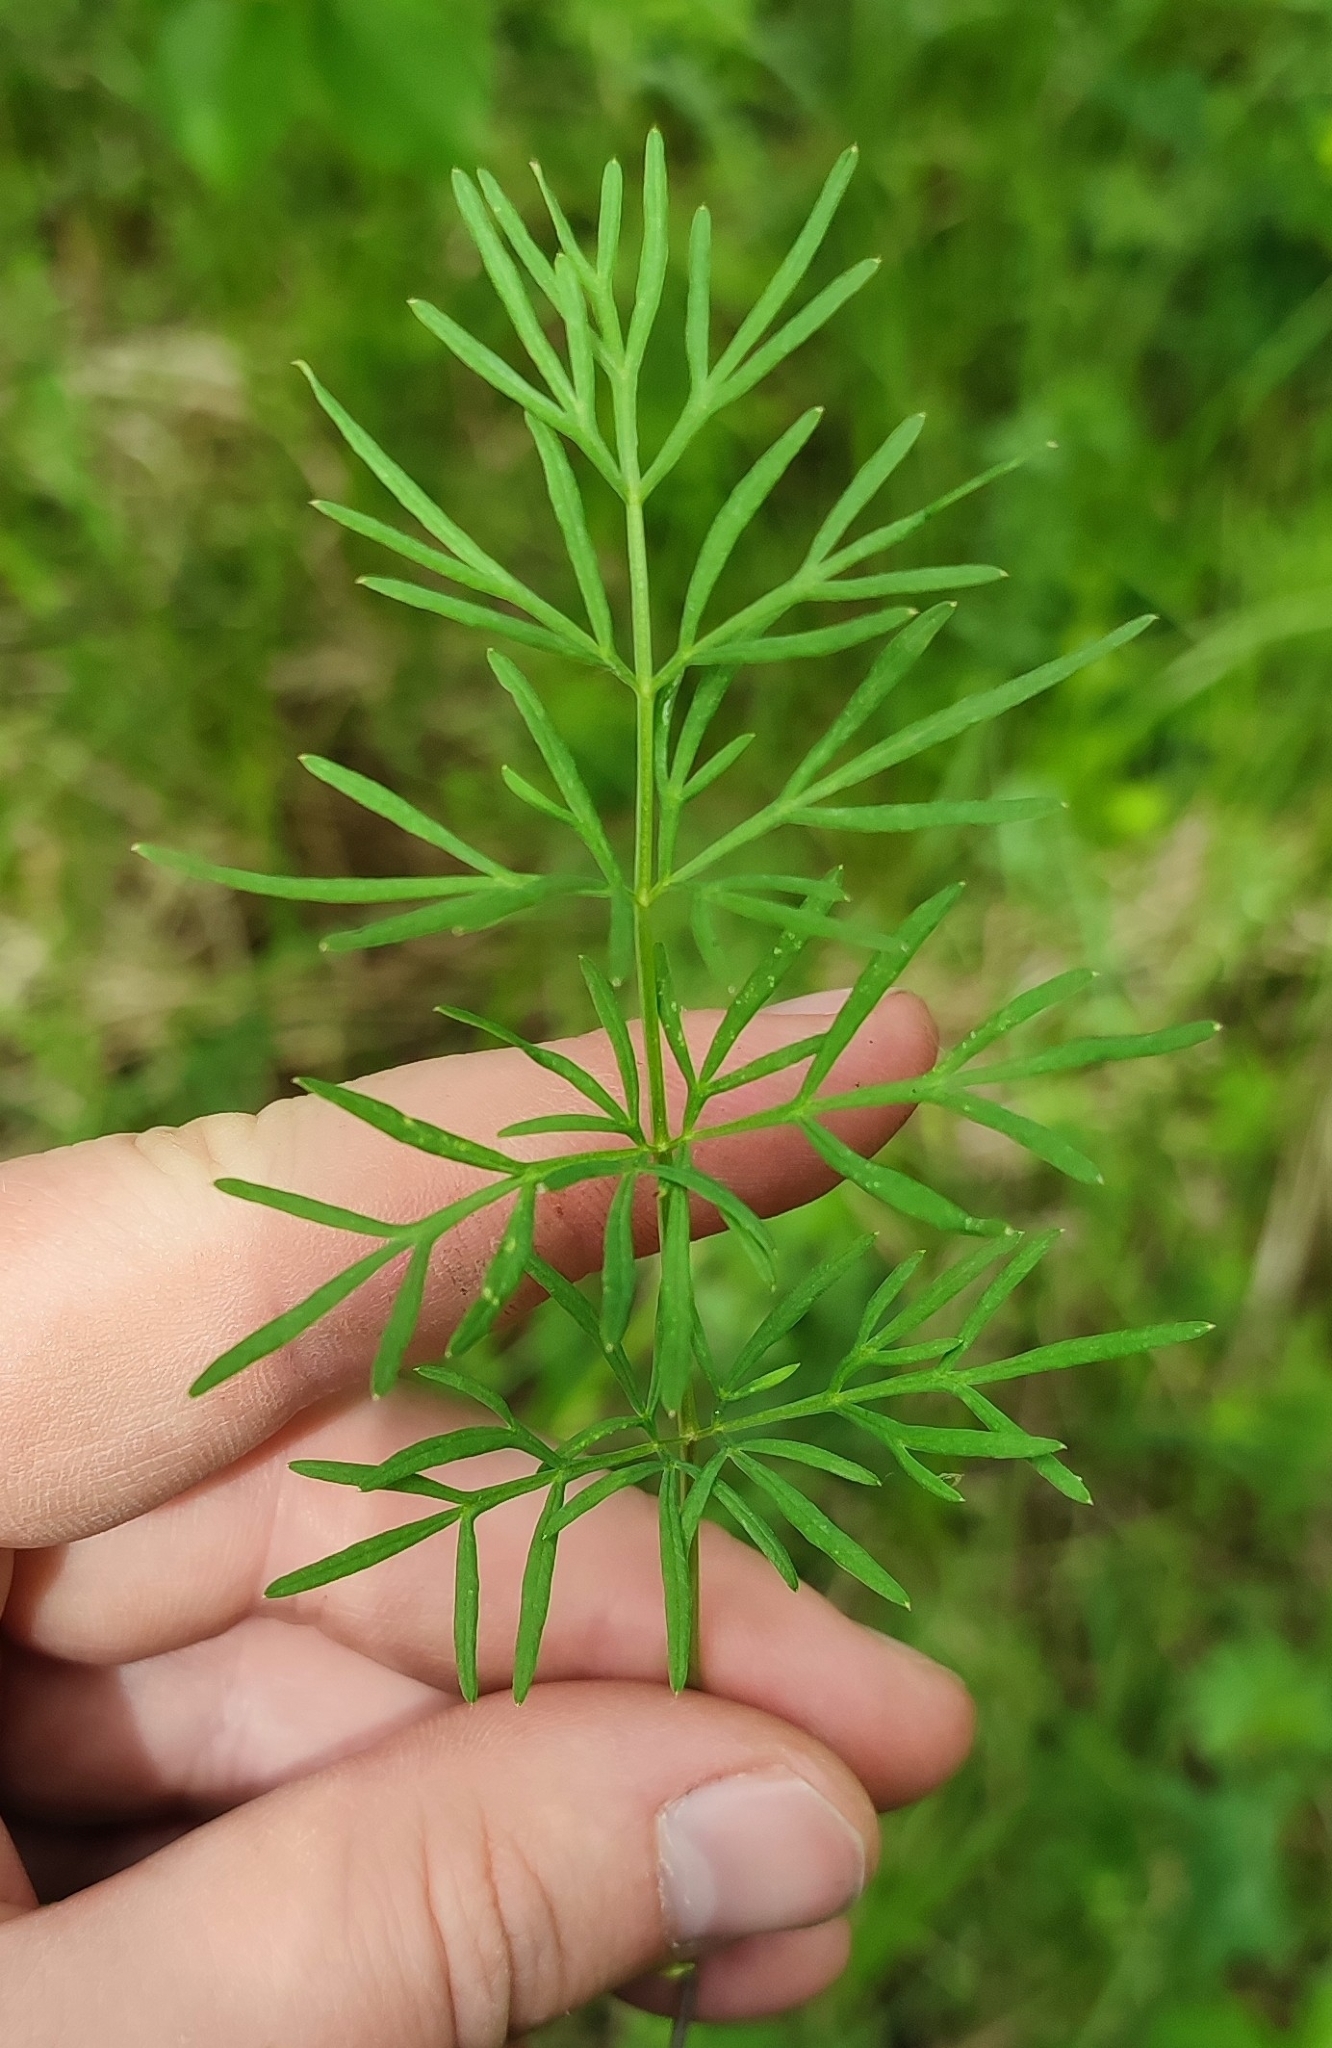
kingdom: Plantae
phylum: Tracheophyta
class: Magnoliopsida
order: Apiales
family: Apiaceae
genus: Kadenia
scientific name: Kadenia dubia
